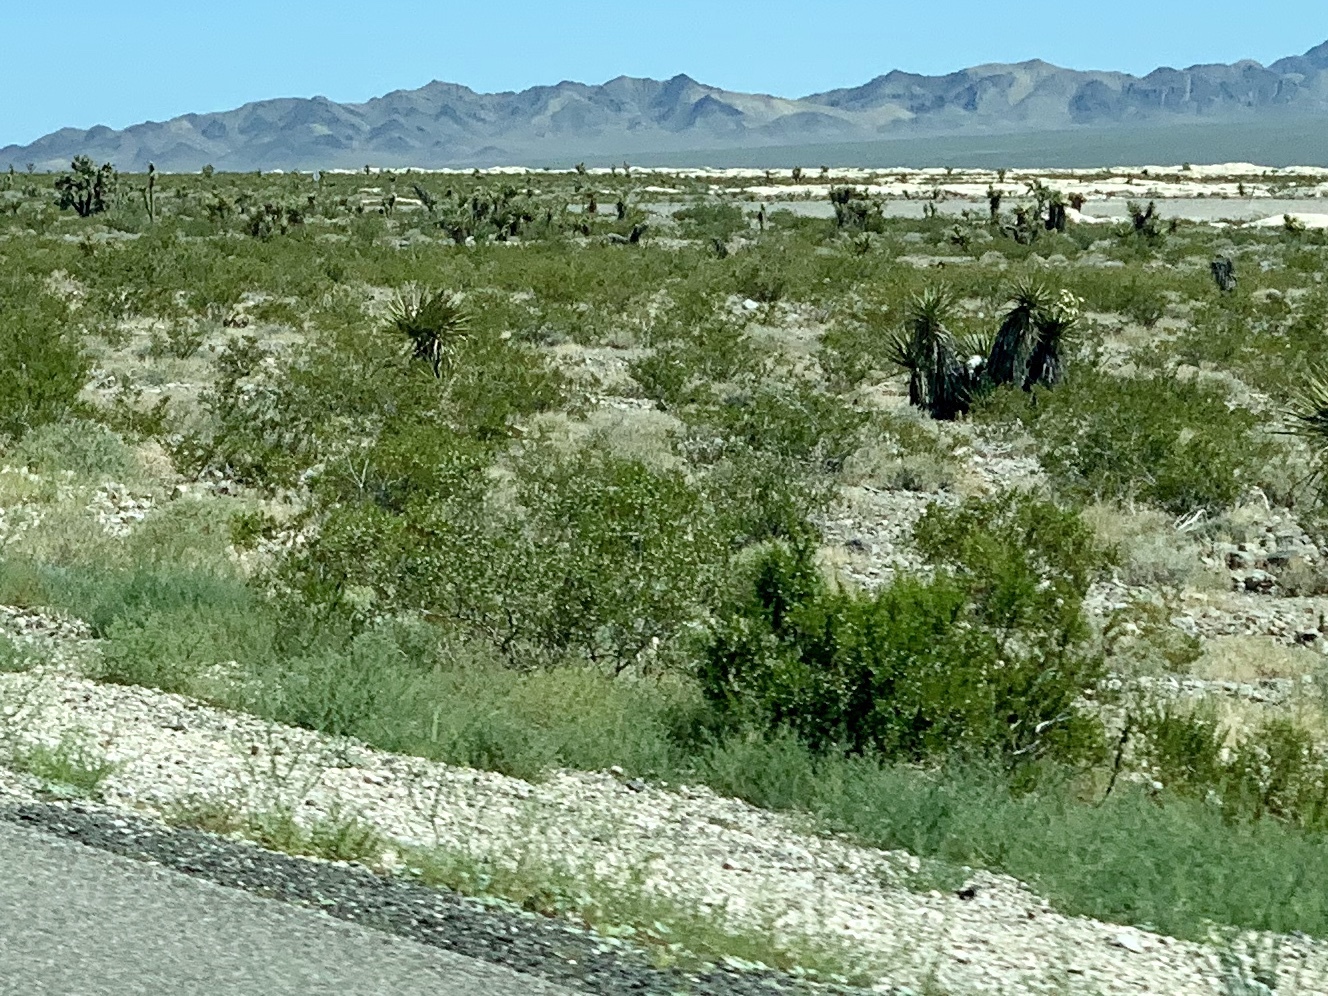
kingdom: Plantae
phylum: Tracheophyta
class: Magnoliopsida
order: Zygophyllales
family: Zygophyllaceae
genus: Larrea
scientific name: Larrea tridentata
